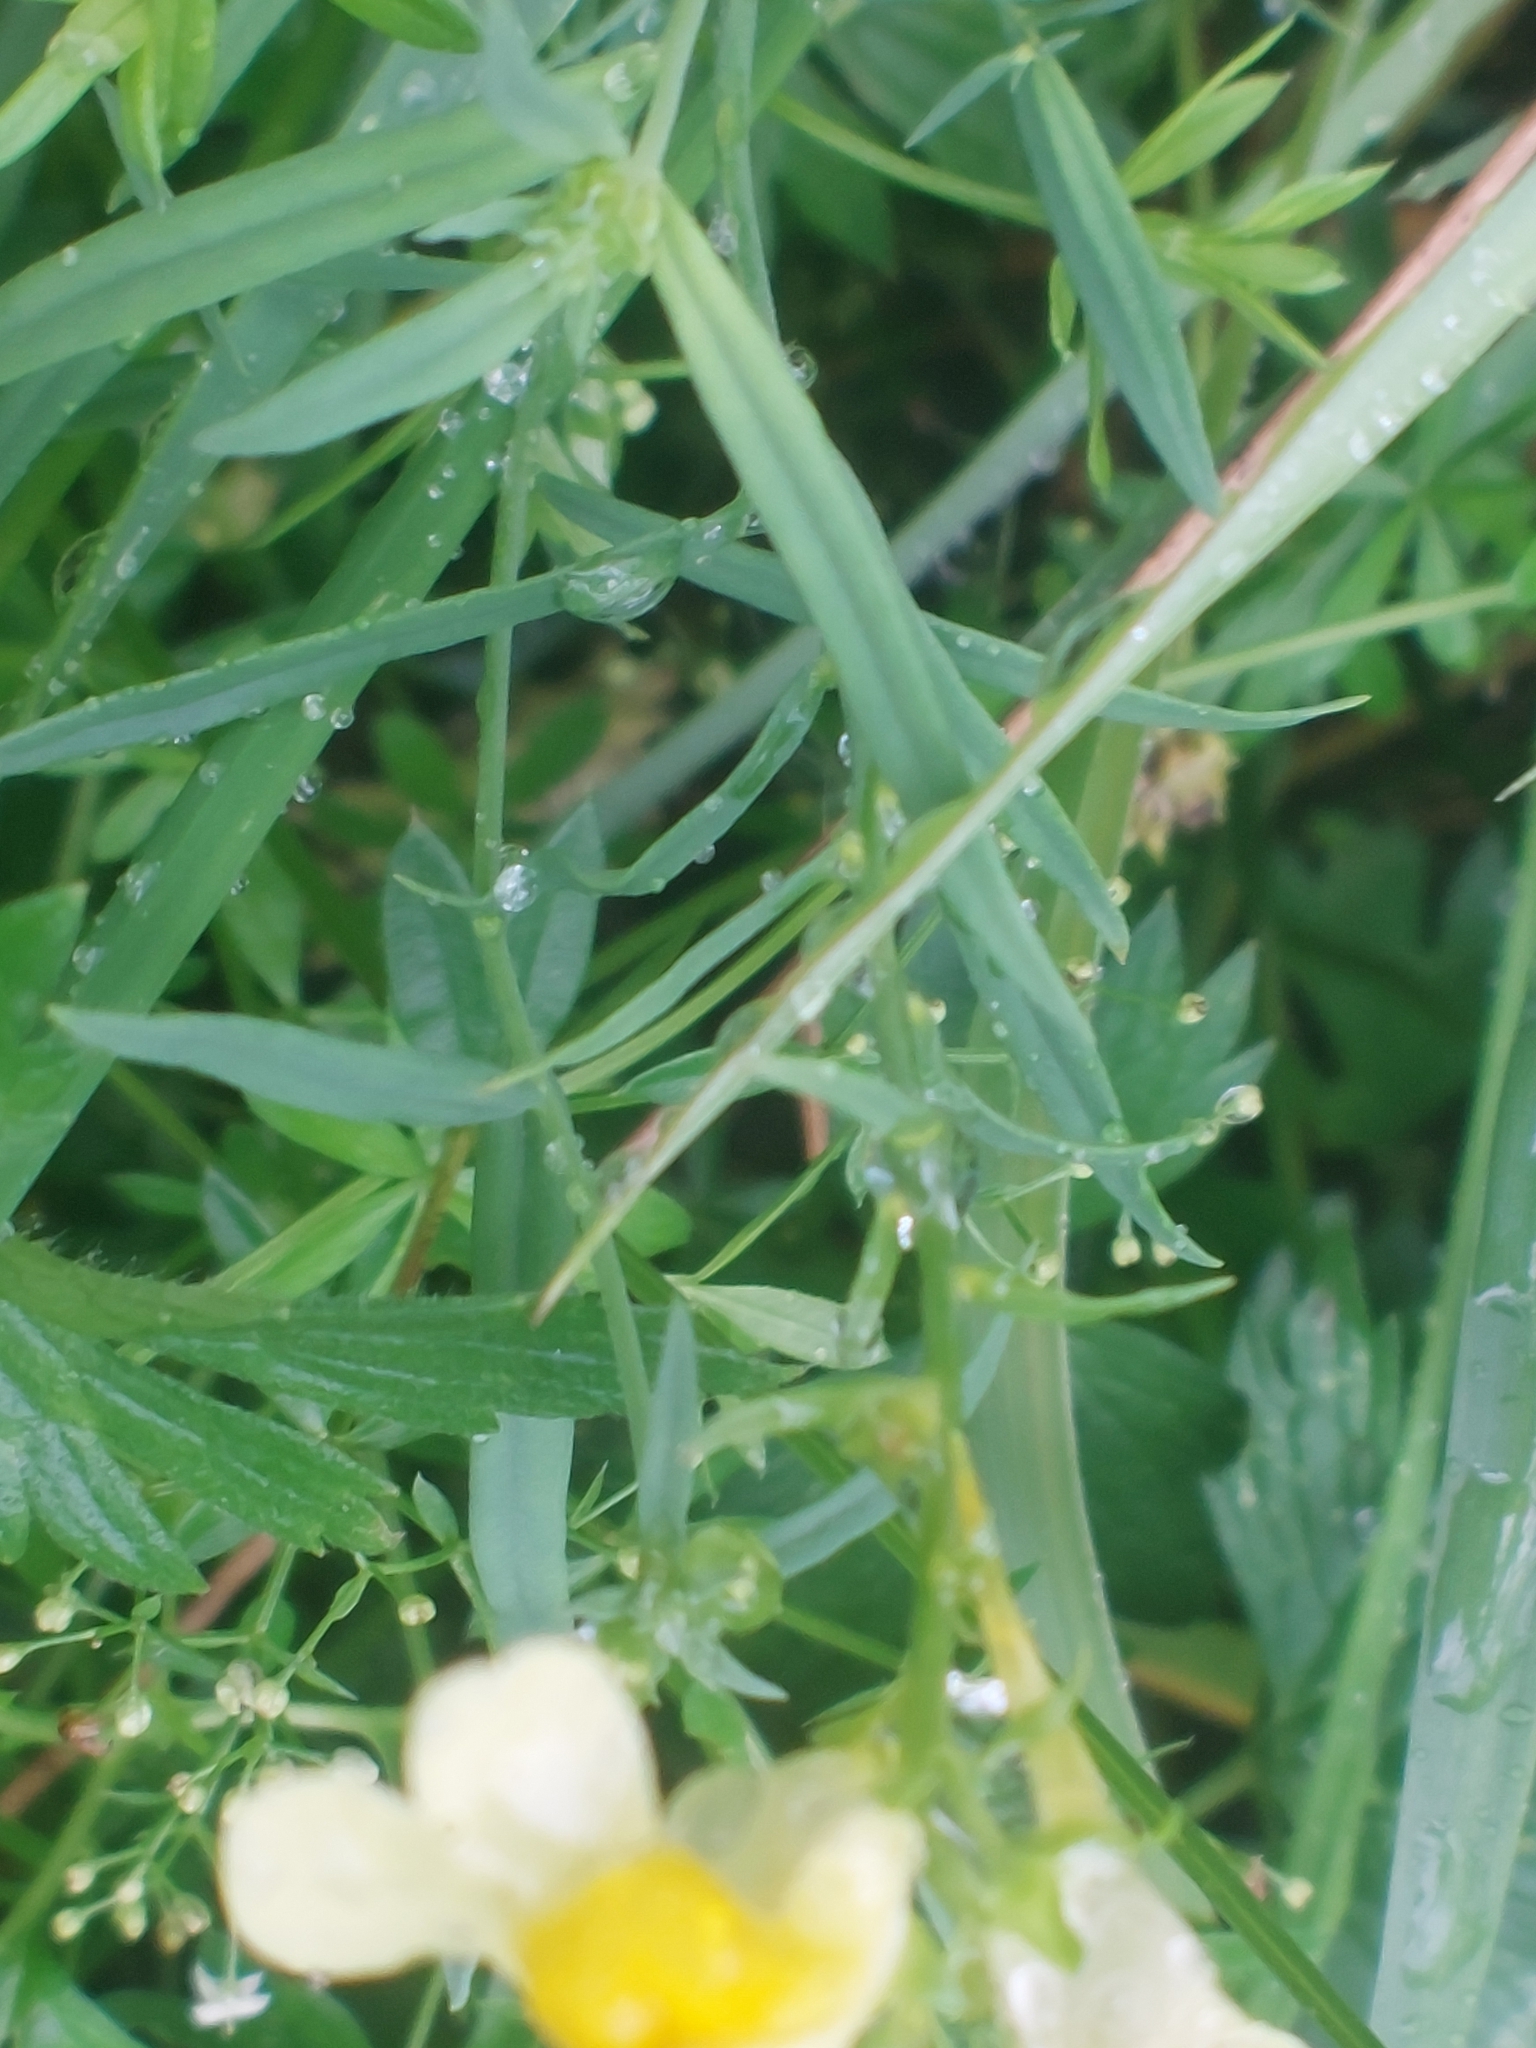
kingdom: Plantae
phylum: Tracheophyta
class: Magnoliopsida
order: Lamiales
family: Plantaginaceae
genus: Linaria
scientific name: Linaria vulgaris
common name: Butter and eggs
